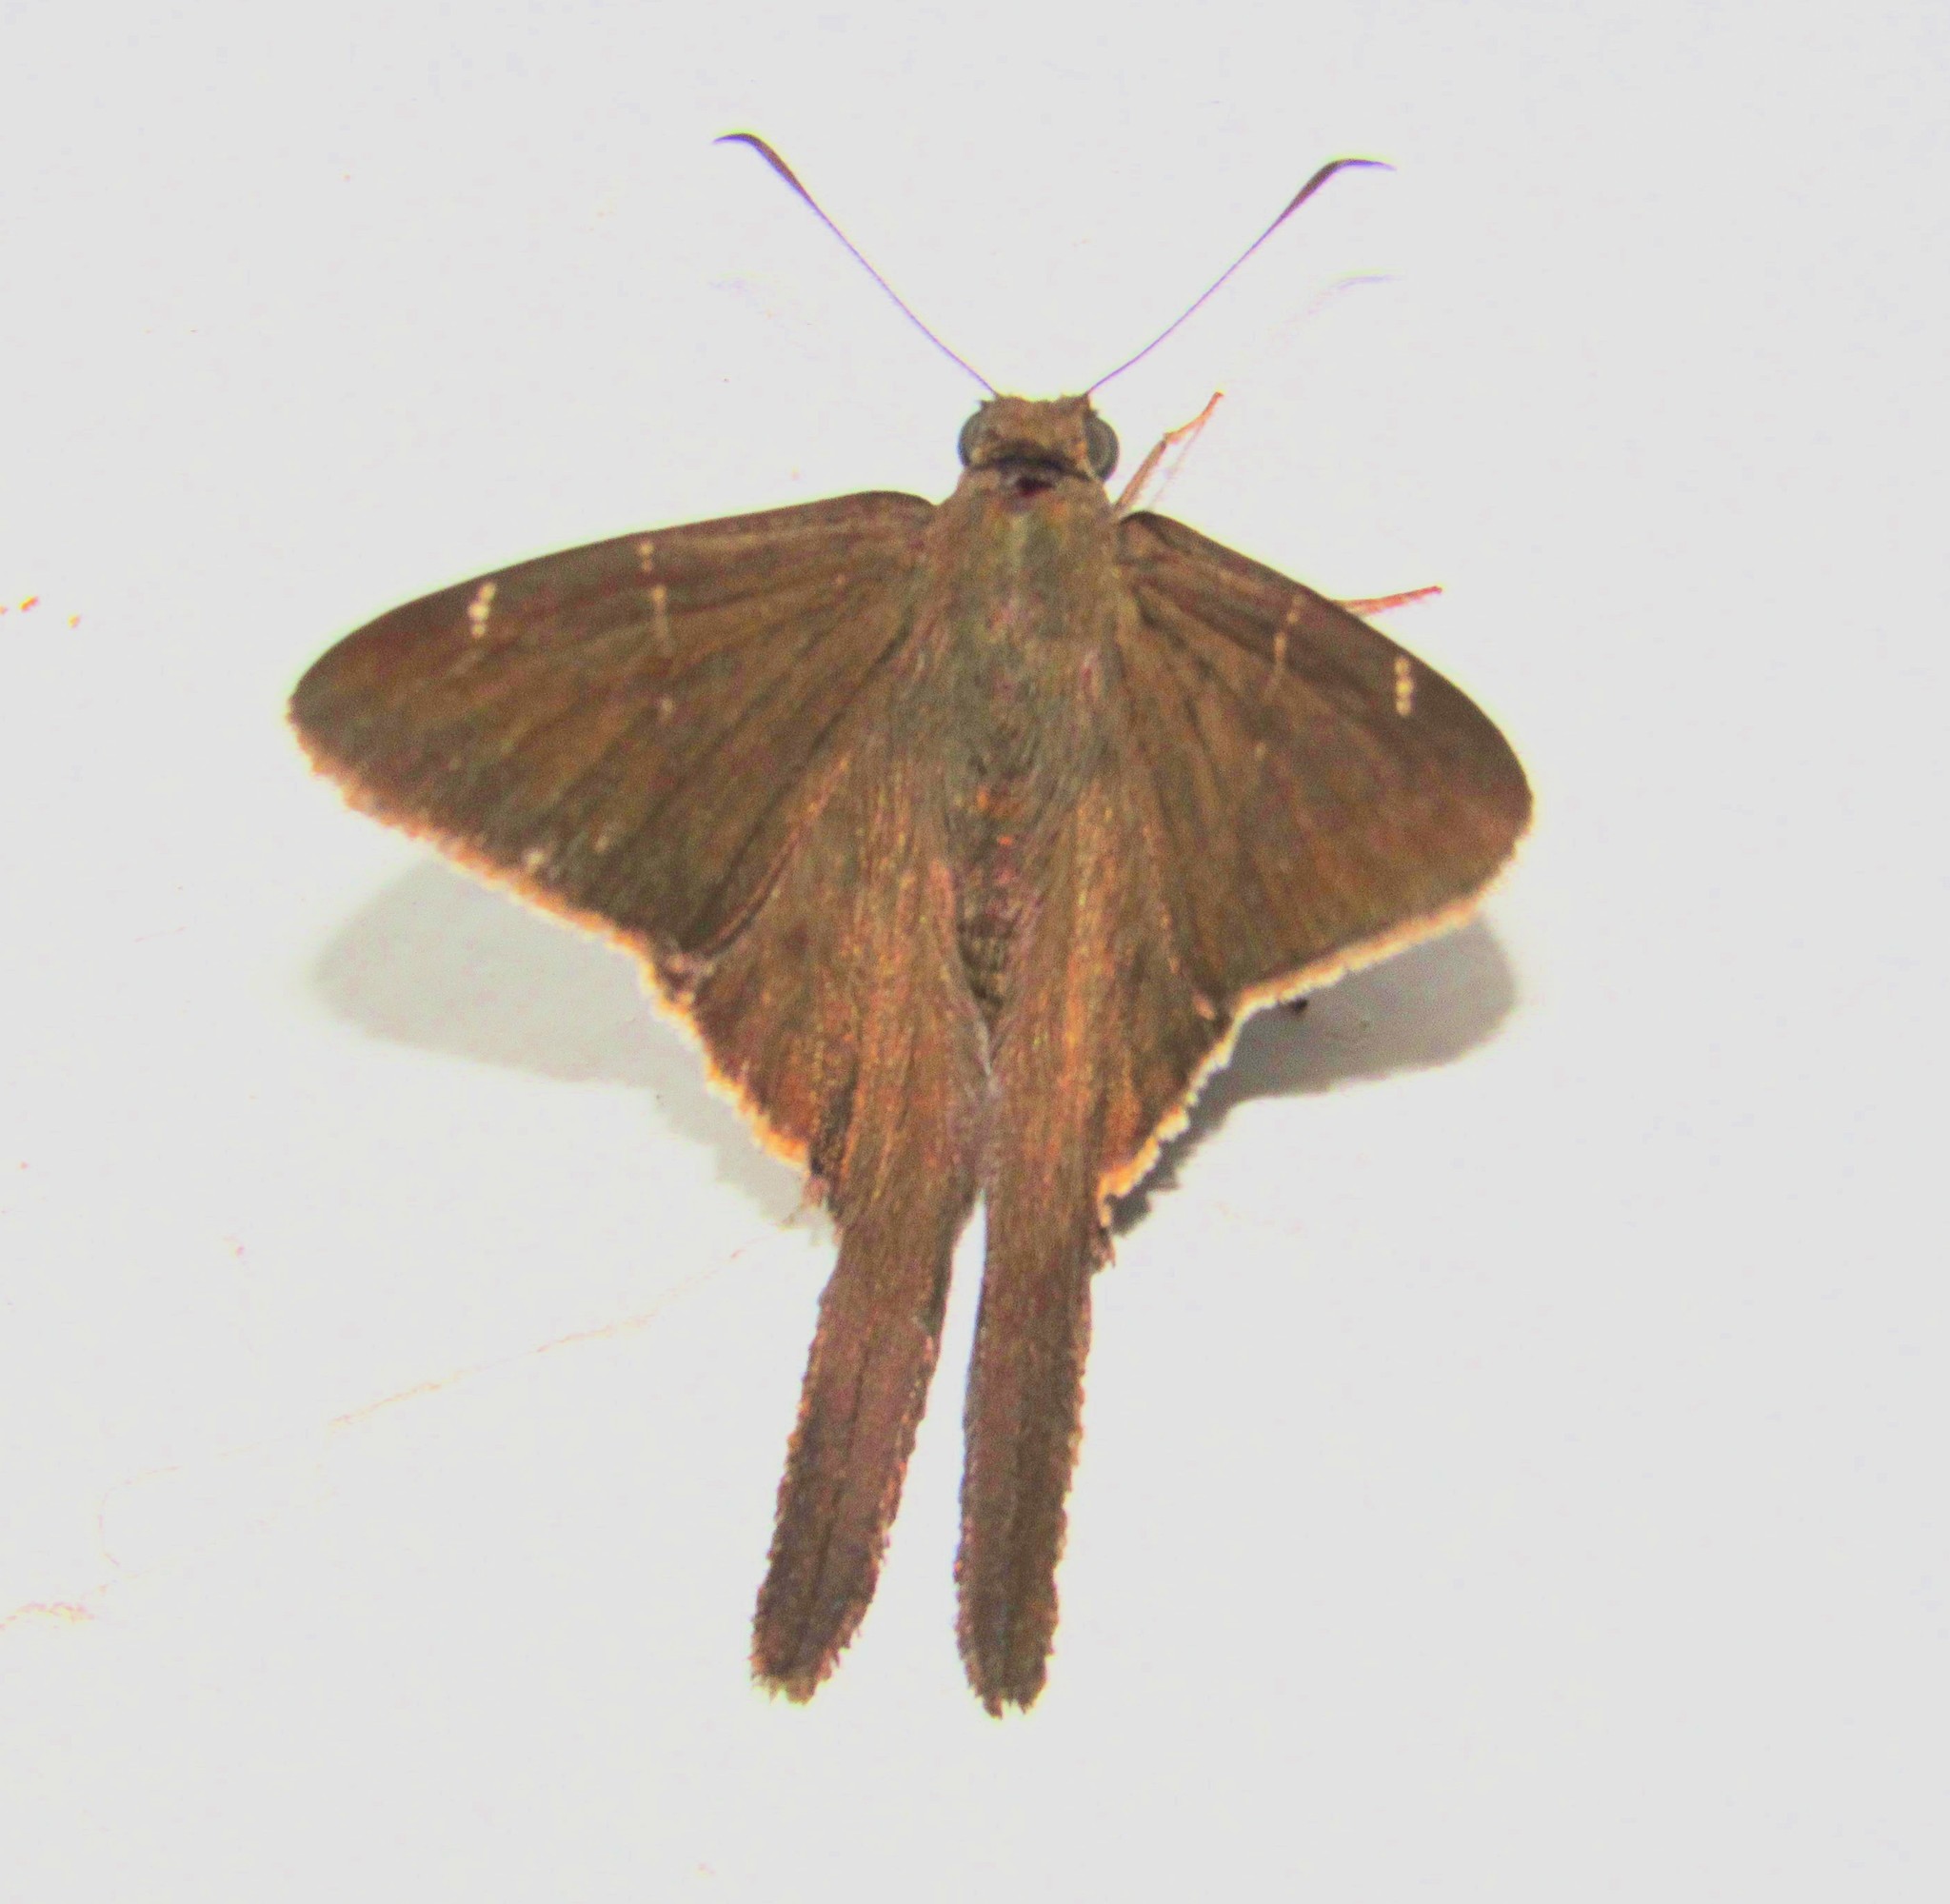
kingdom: Animalia
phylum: Arthropoda
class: Insecta
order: Lepidoptera
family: Hesperiidae
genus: Urbanus
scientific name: Urbanus procne
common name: Brown longtail
